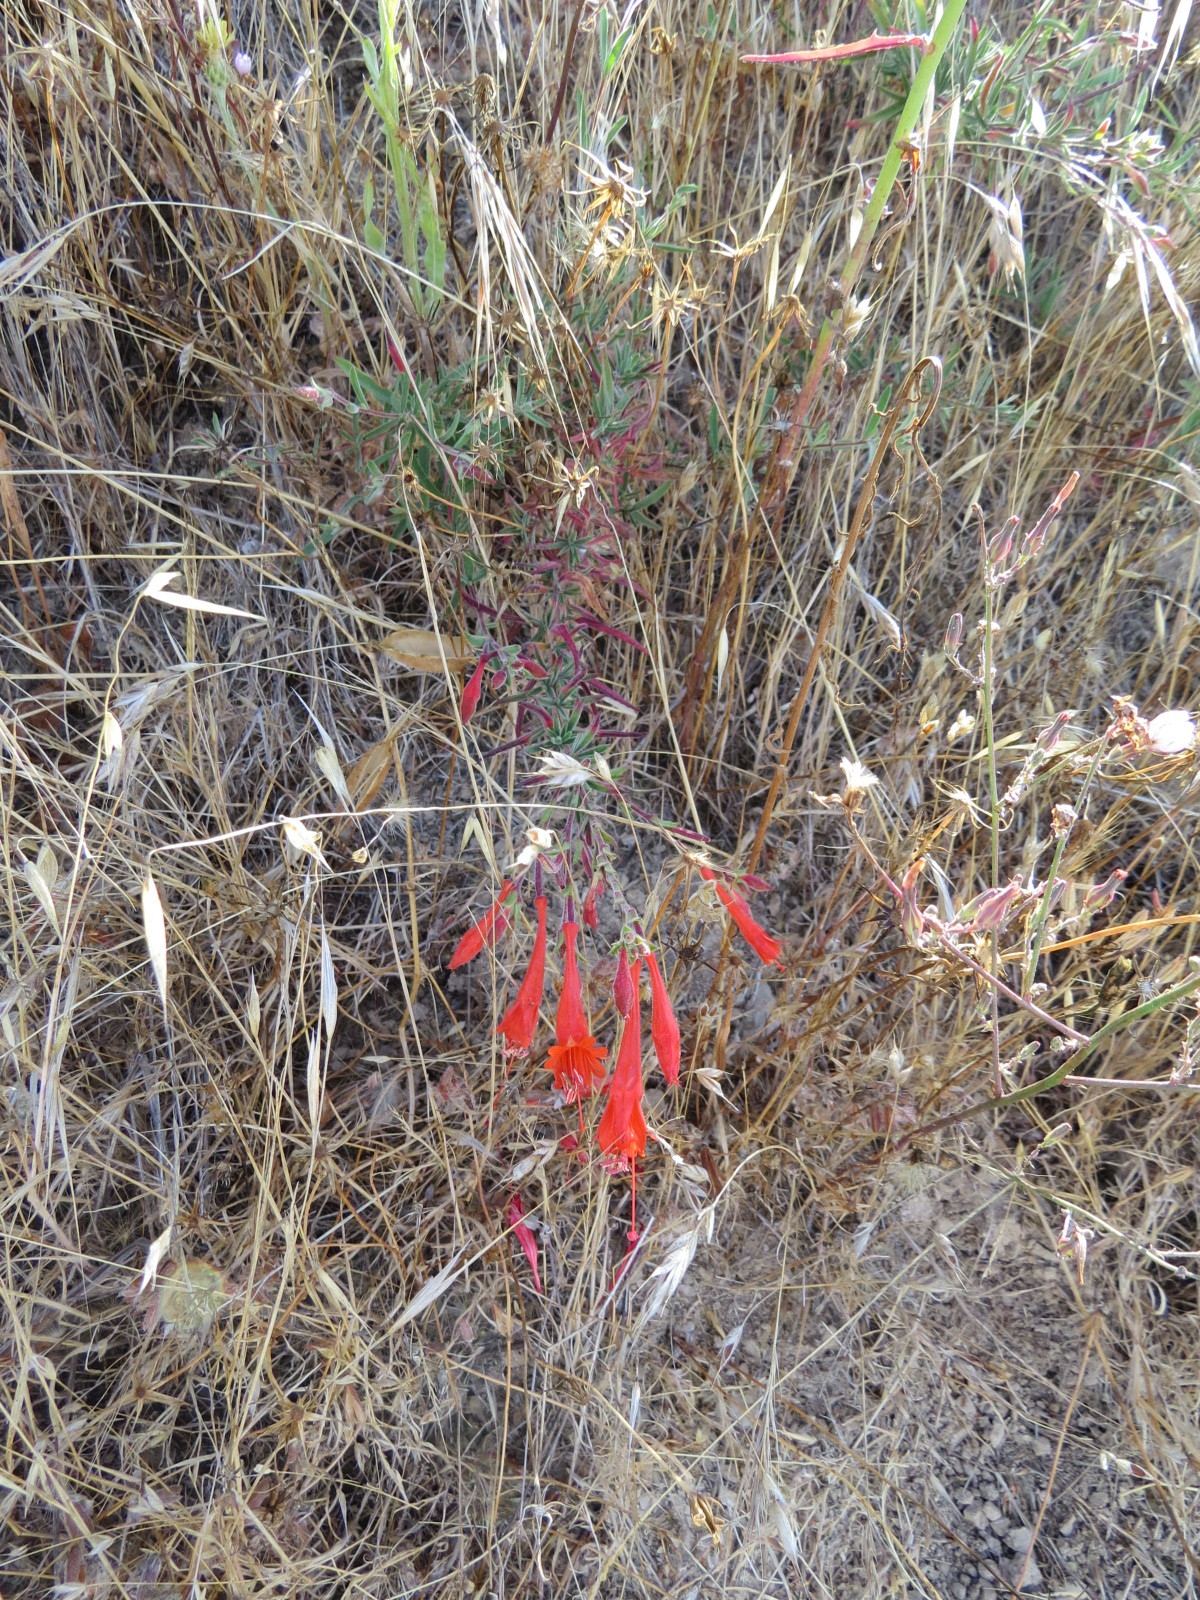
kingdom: Plantae
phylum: Tracheophyta
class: Magnoliopsida
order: Myrtales
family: Onagraceae
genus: Epilobium
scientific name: Epilobium canum
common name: California-fuchsia
